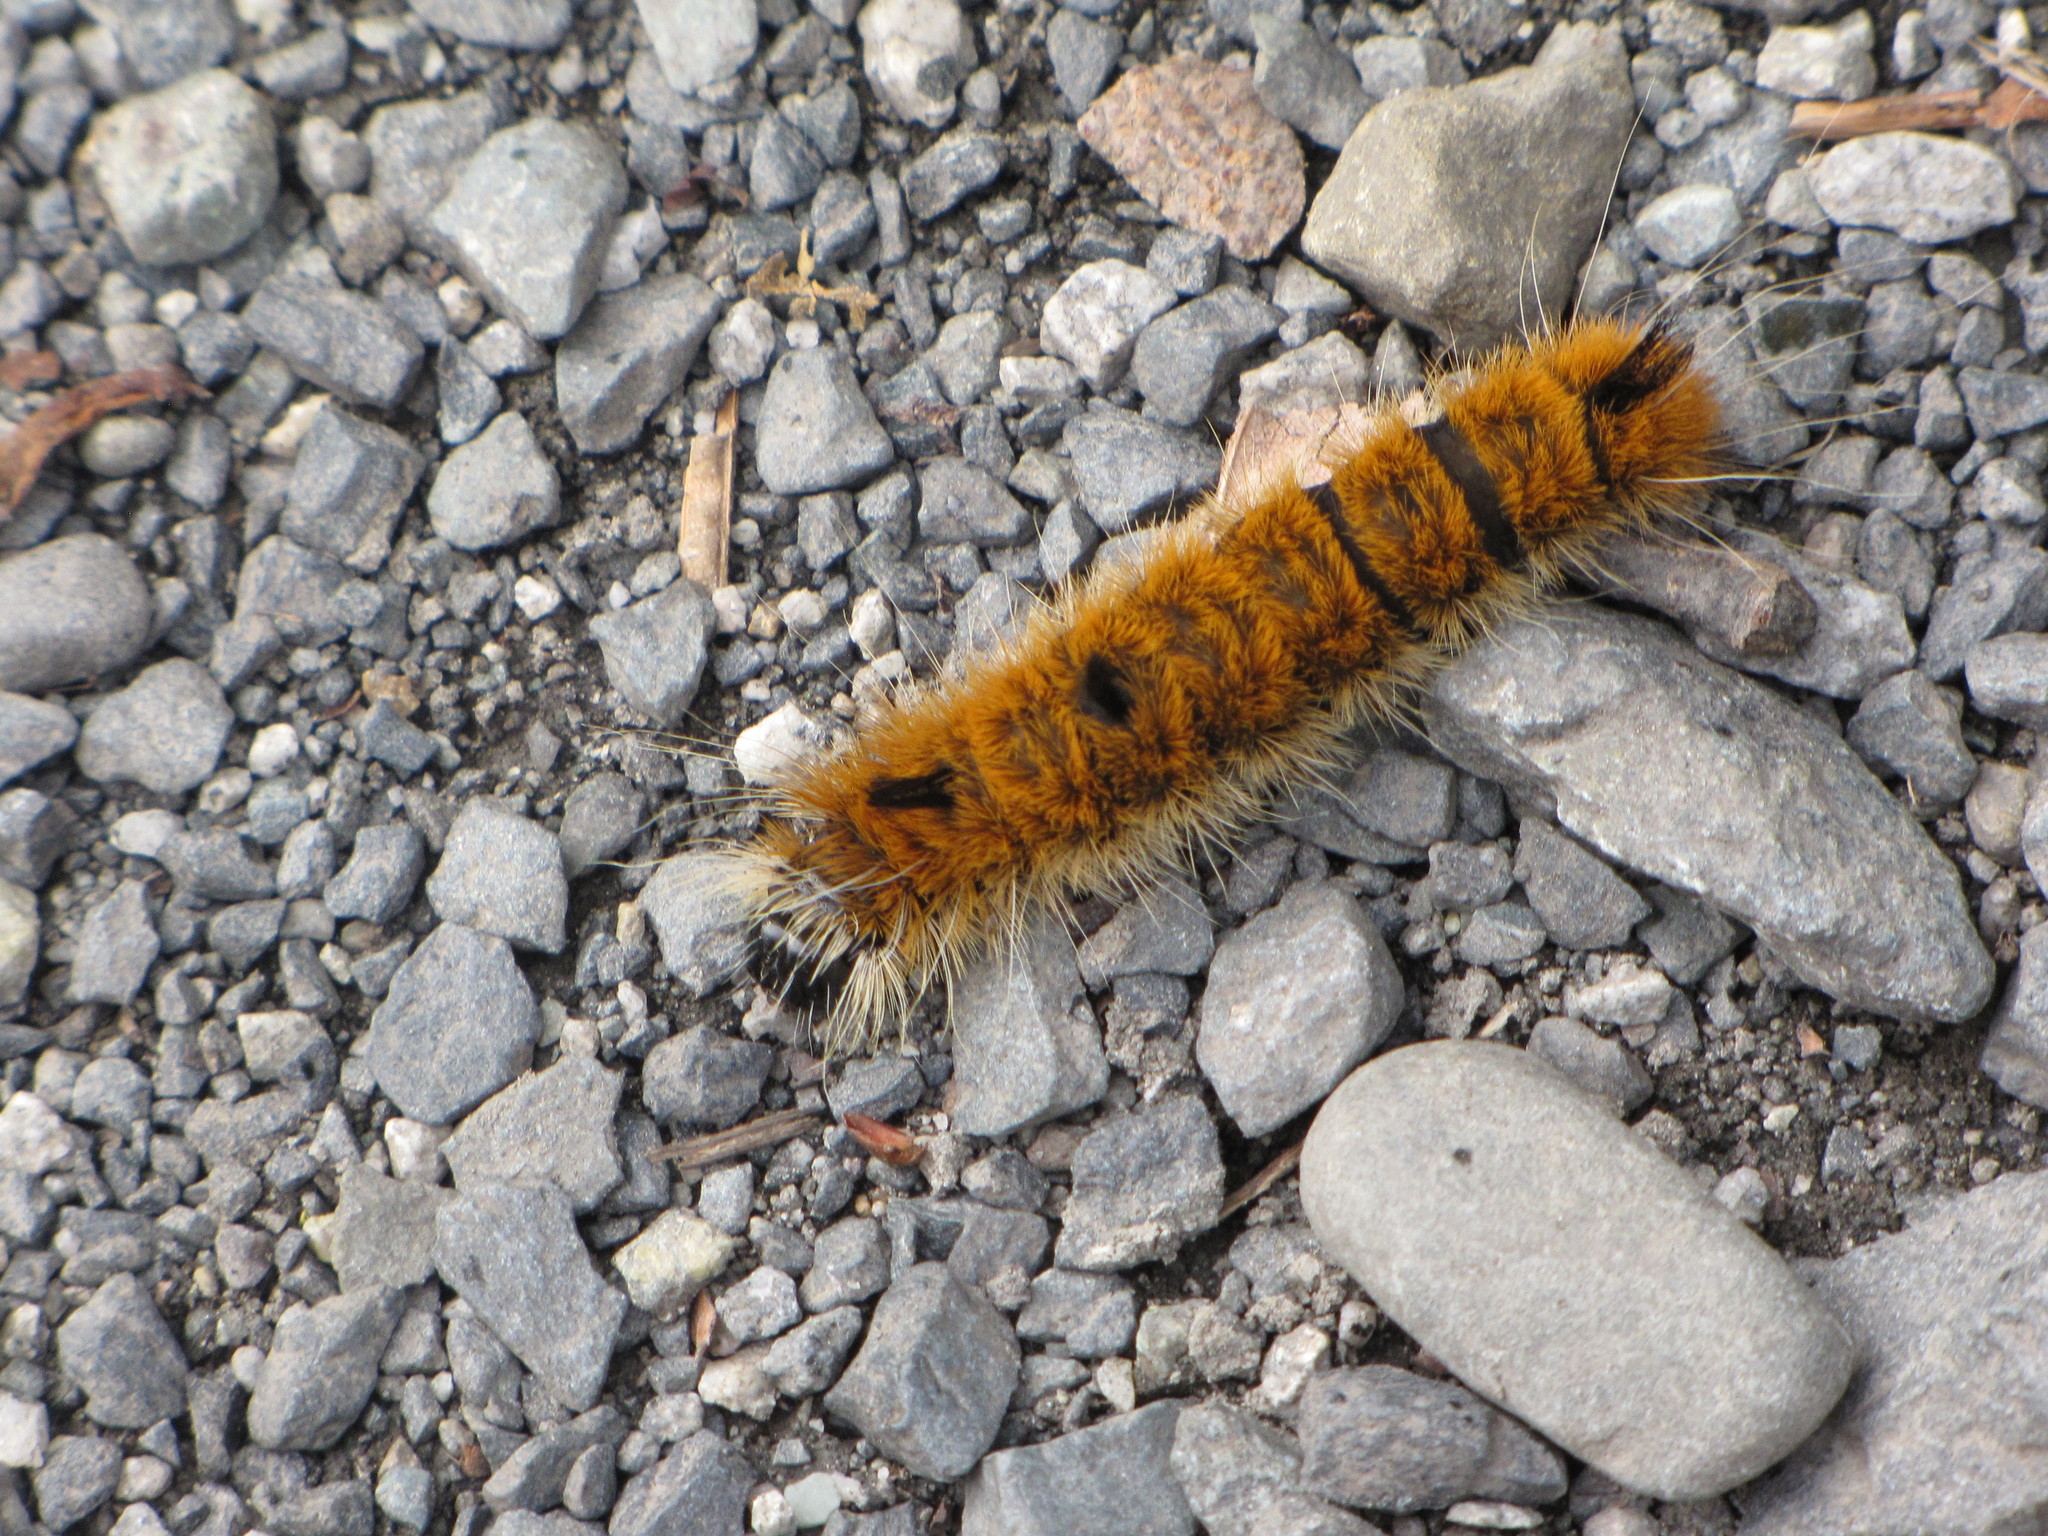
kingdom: Animalia
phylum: Arthropoda
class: Insecta
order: Lepidoptera
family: Noctuidae
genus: Acronicta
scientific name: Acronicta insita
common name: Large gray dagger
